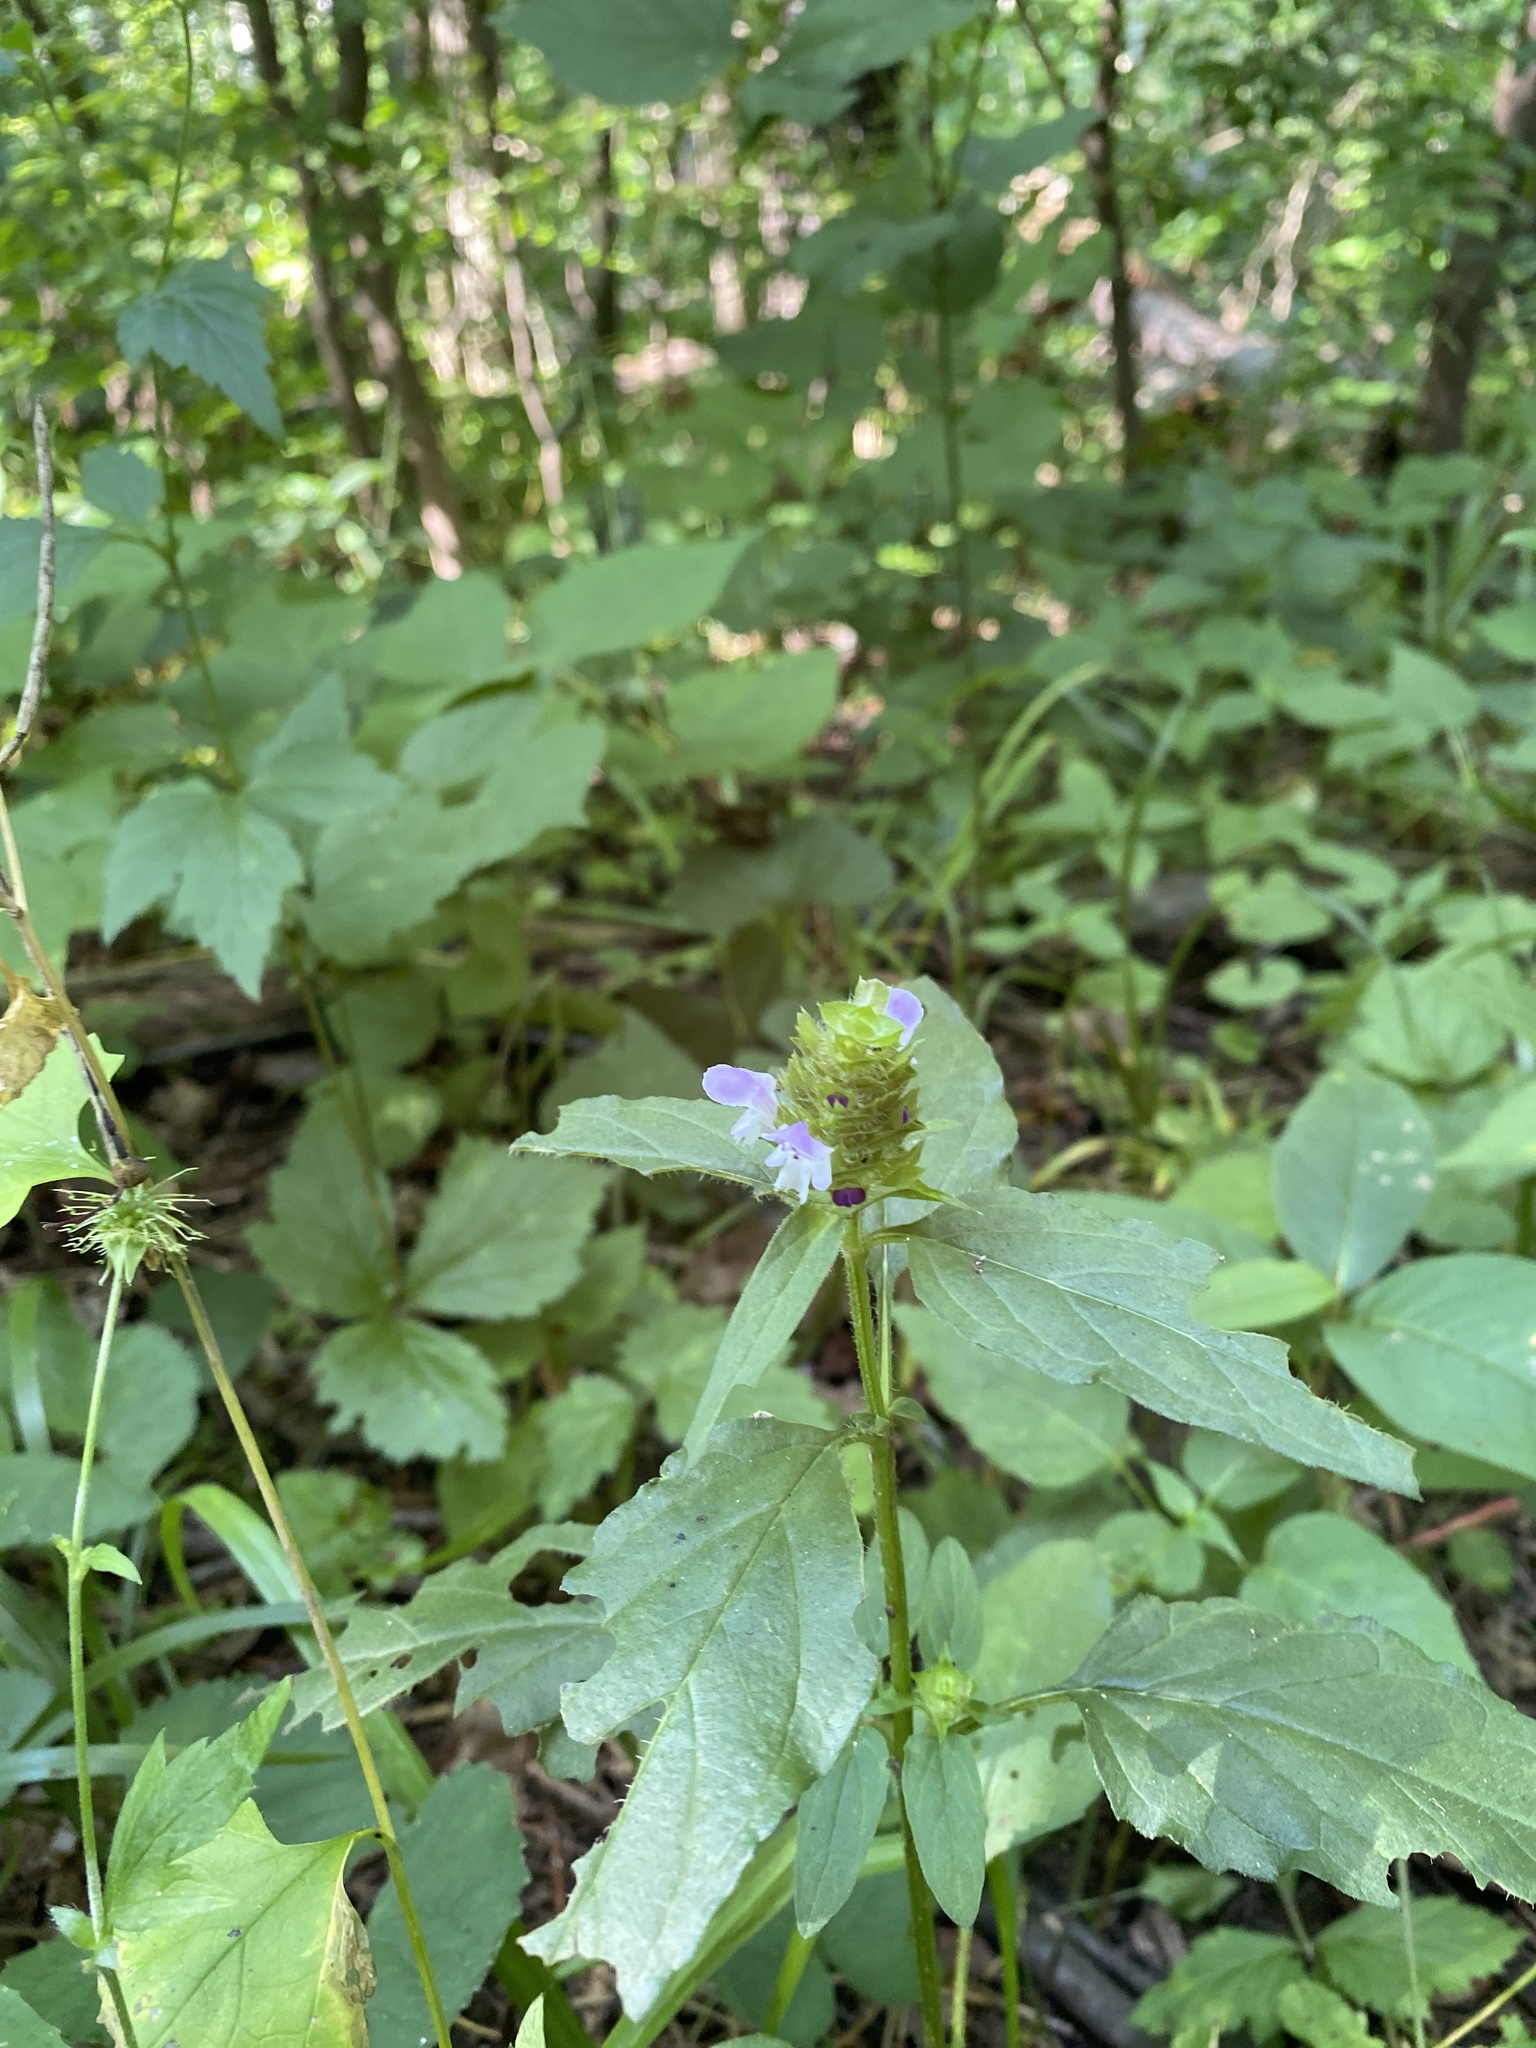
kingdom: Plantae
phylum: Tracheophyta
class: Magnoliopsida
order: Lamiales
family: Lamiaceae
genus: Prunella
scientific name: Prunella vulgaris
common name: Heal-all
